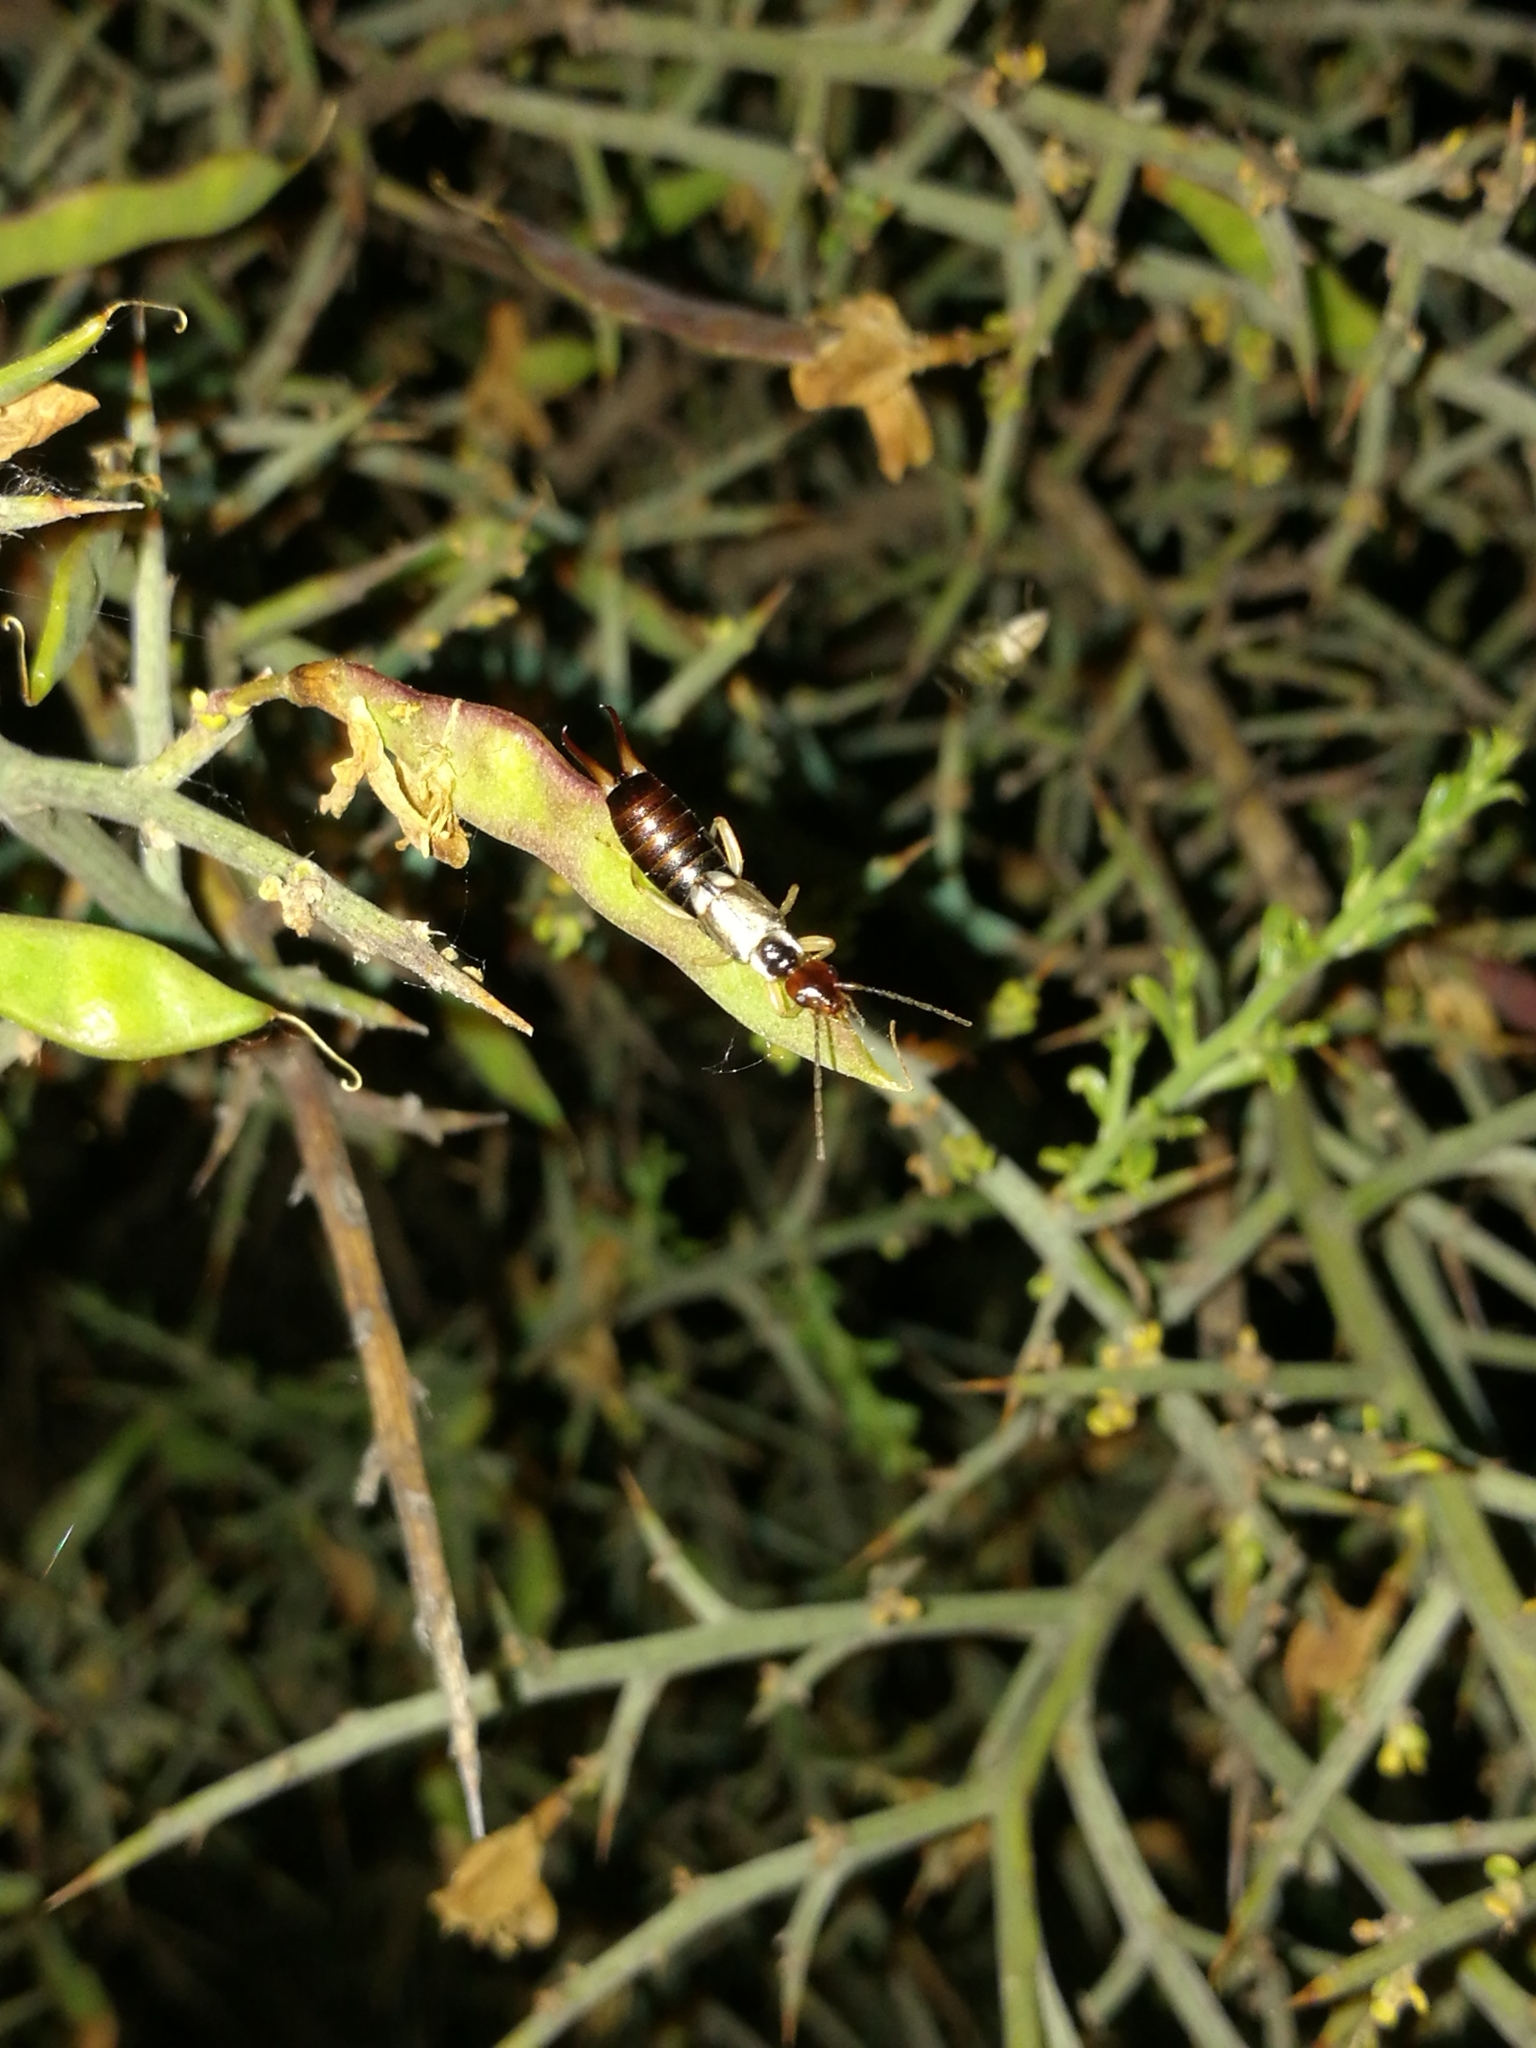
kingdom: Animalia
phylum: Arthropoda
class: Insecta
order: Dermaptera
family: Forficulidae
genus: Forficula
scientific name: Forficula
